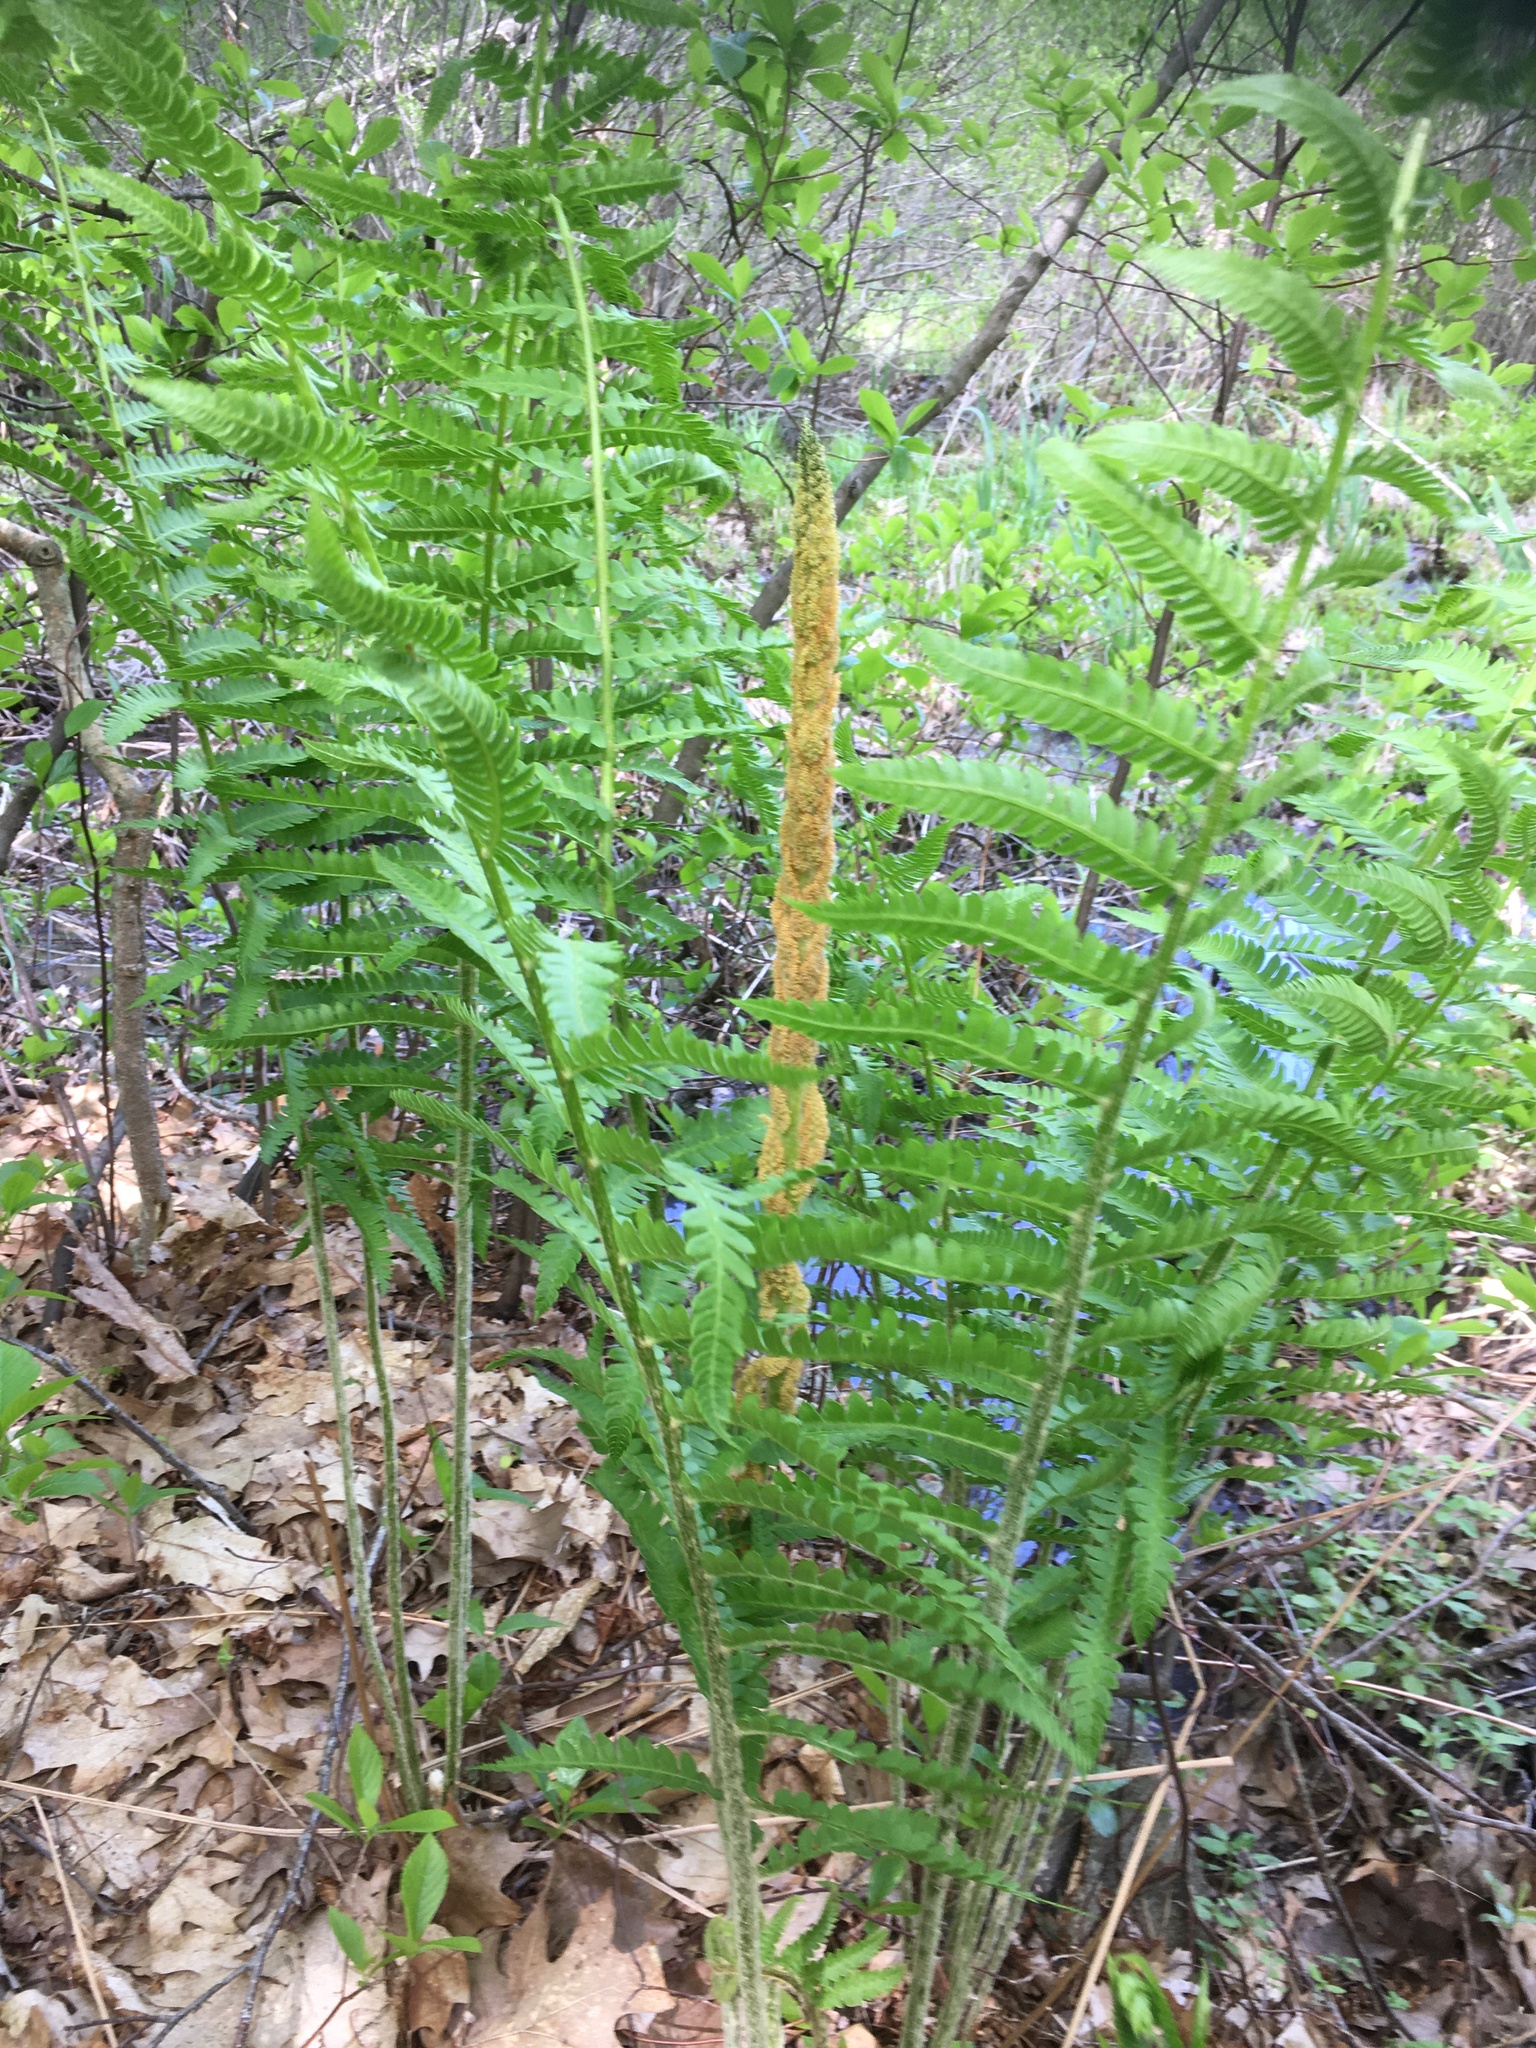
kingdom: Plantae
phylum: Tracheophyta
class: Polypodiopsida
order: Osmundales
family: Osmundaceae
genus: Osmundastrum
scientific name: Osmundastrum cinnamomeum
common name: Cinnamon fern
